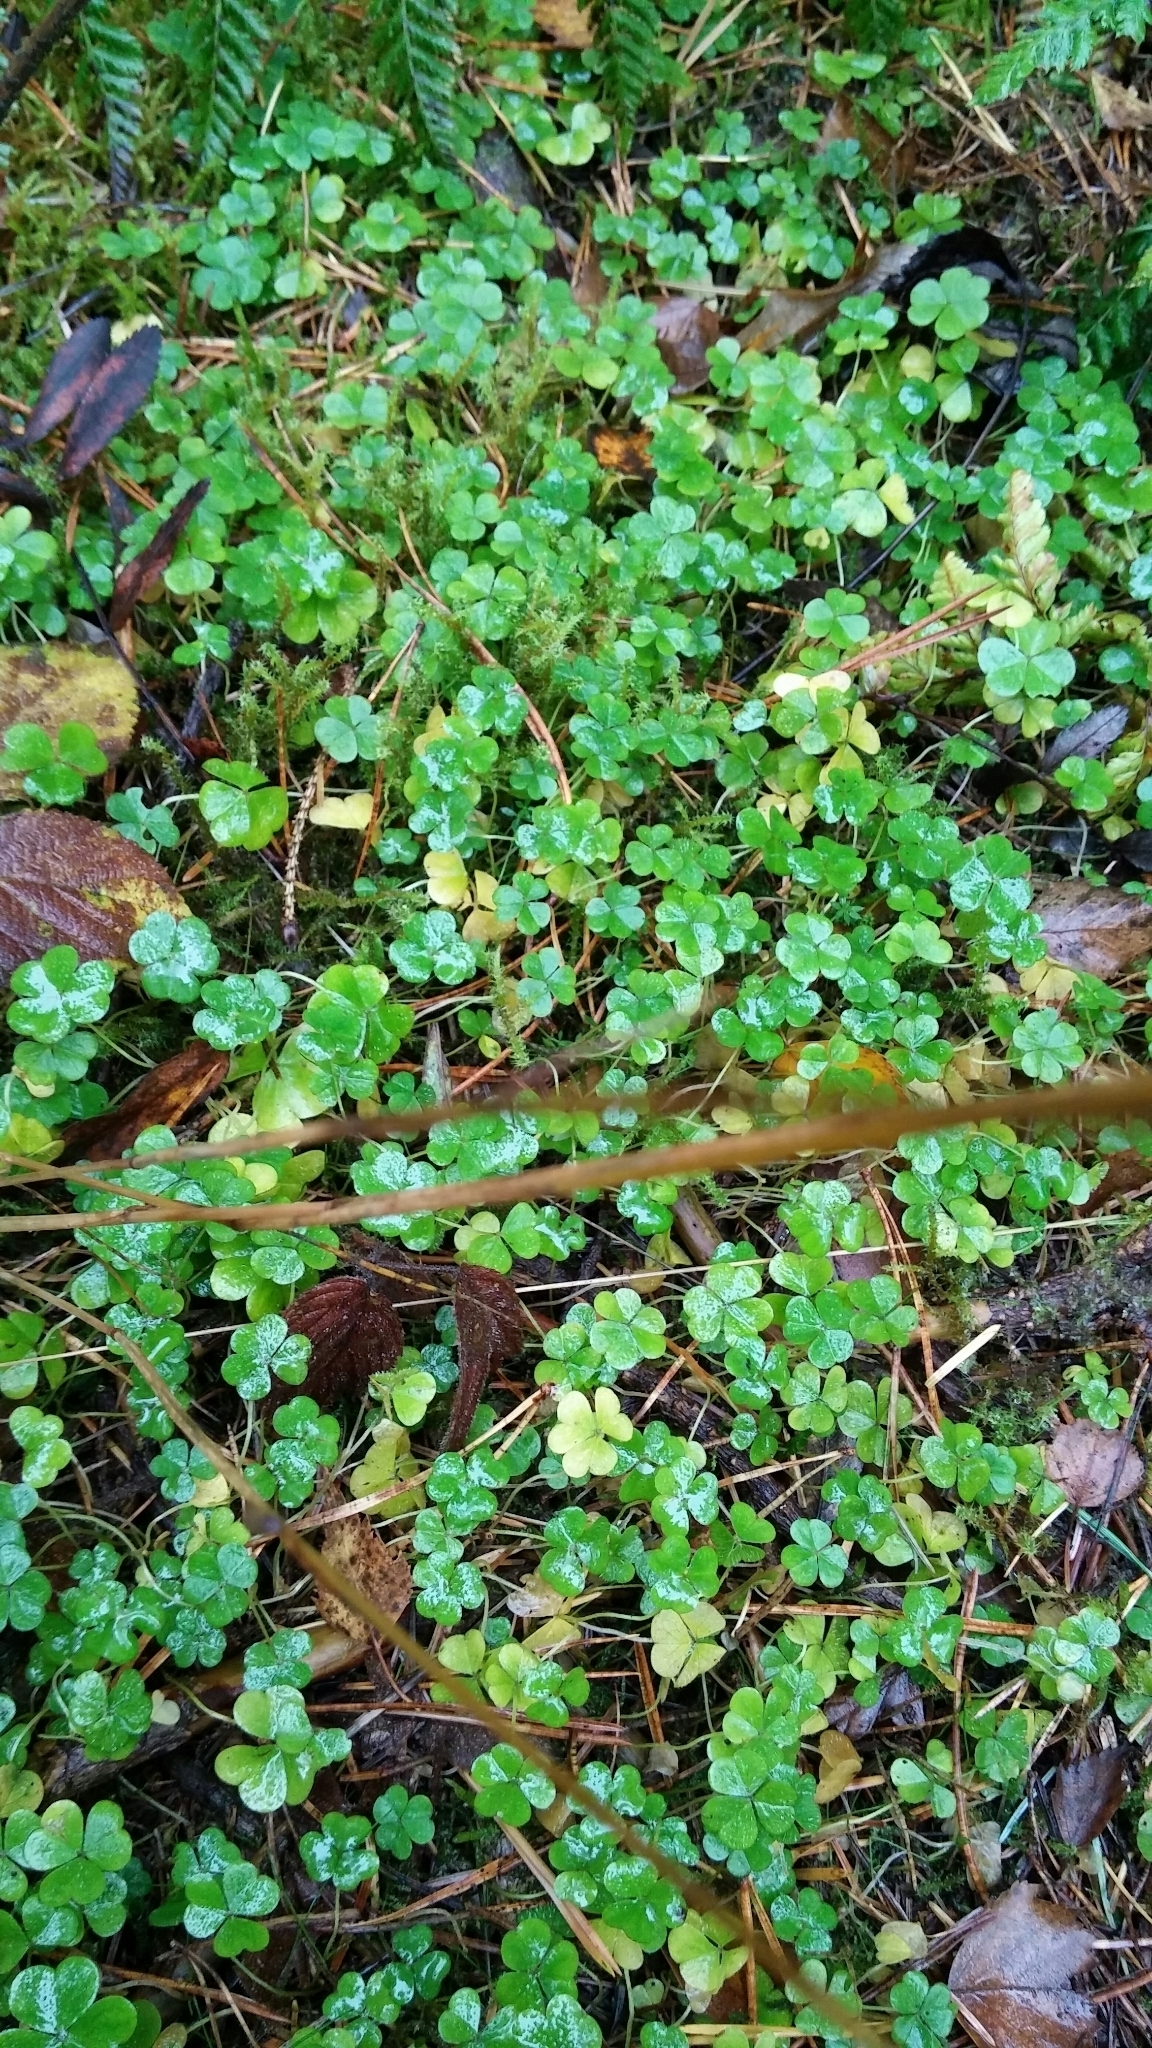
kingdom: Plantae
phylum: Tracheophyta
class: Magnoliopsida
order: Oxalidales
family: Oxalidaceae
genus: Oxalis
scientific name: Oxalis acetosella
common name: Wood-sorrel
